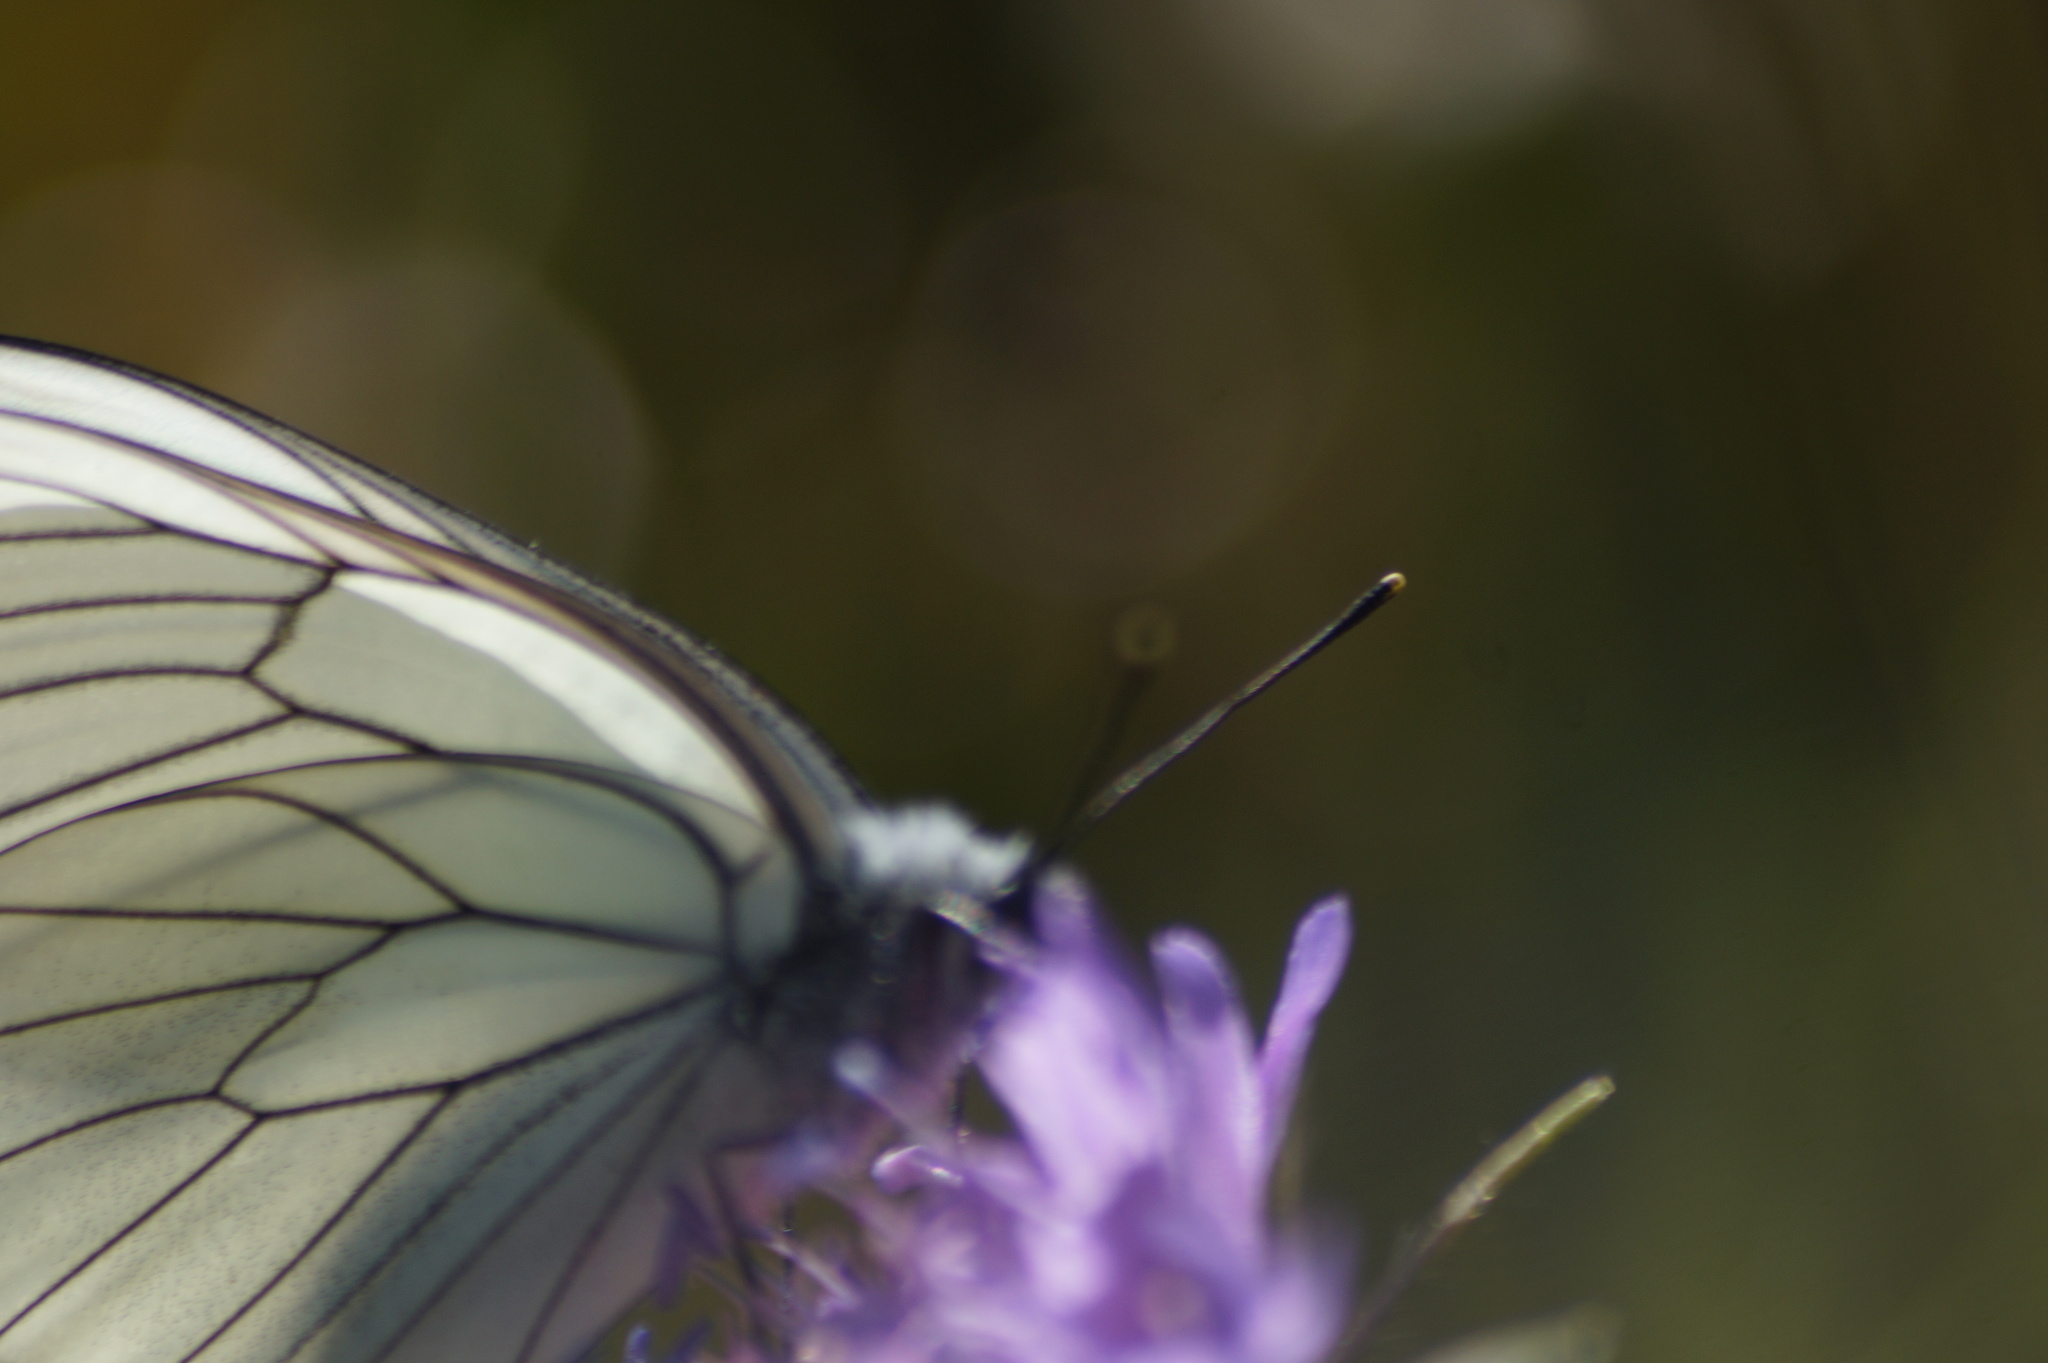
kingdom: Animalia
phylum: Arthropoda
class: Insecta
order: Lepidoptera
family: Pieridae
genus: Aporia
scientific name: Aporia crataegi
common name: Black-veined white
